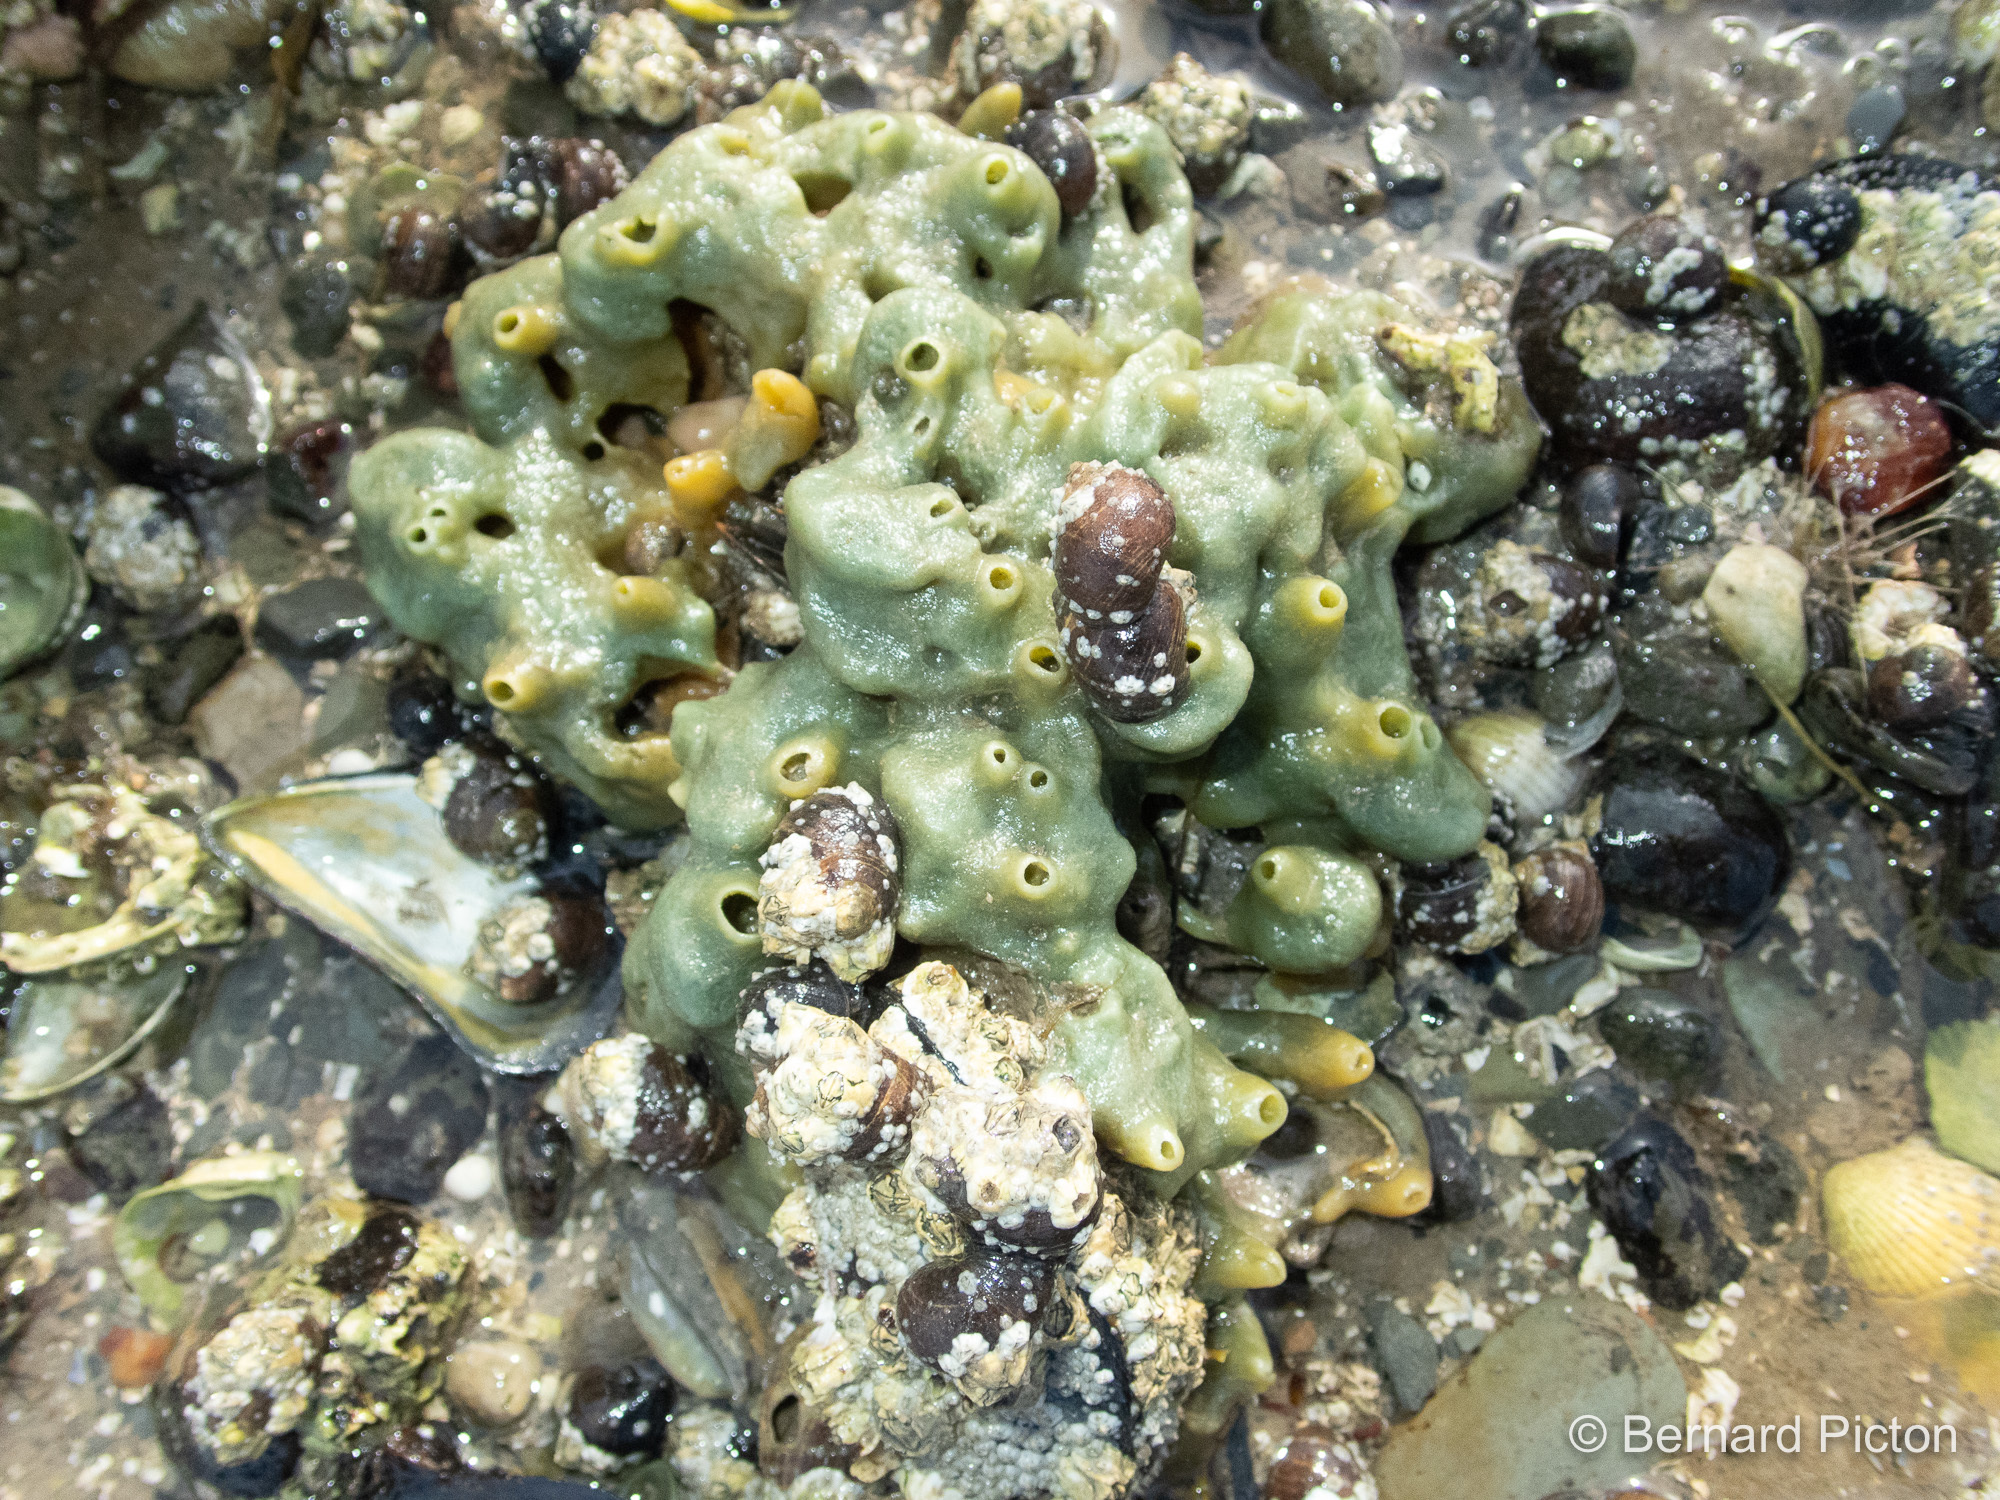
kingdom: Animalia
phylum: Porifera
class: Demospongiae
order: Suberitida
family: Halichondriidae
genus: Halichondria
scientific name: Halichondria panicea
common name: Breadcrumb sponge
